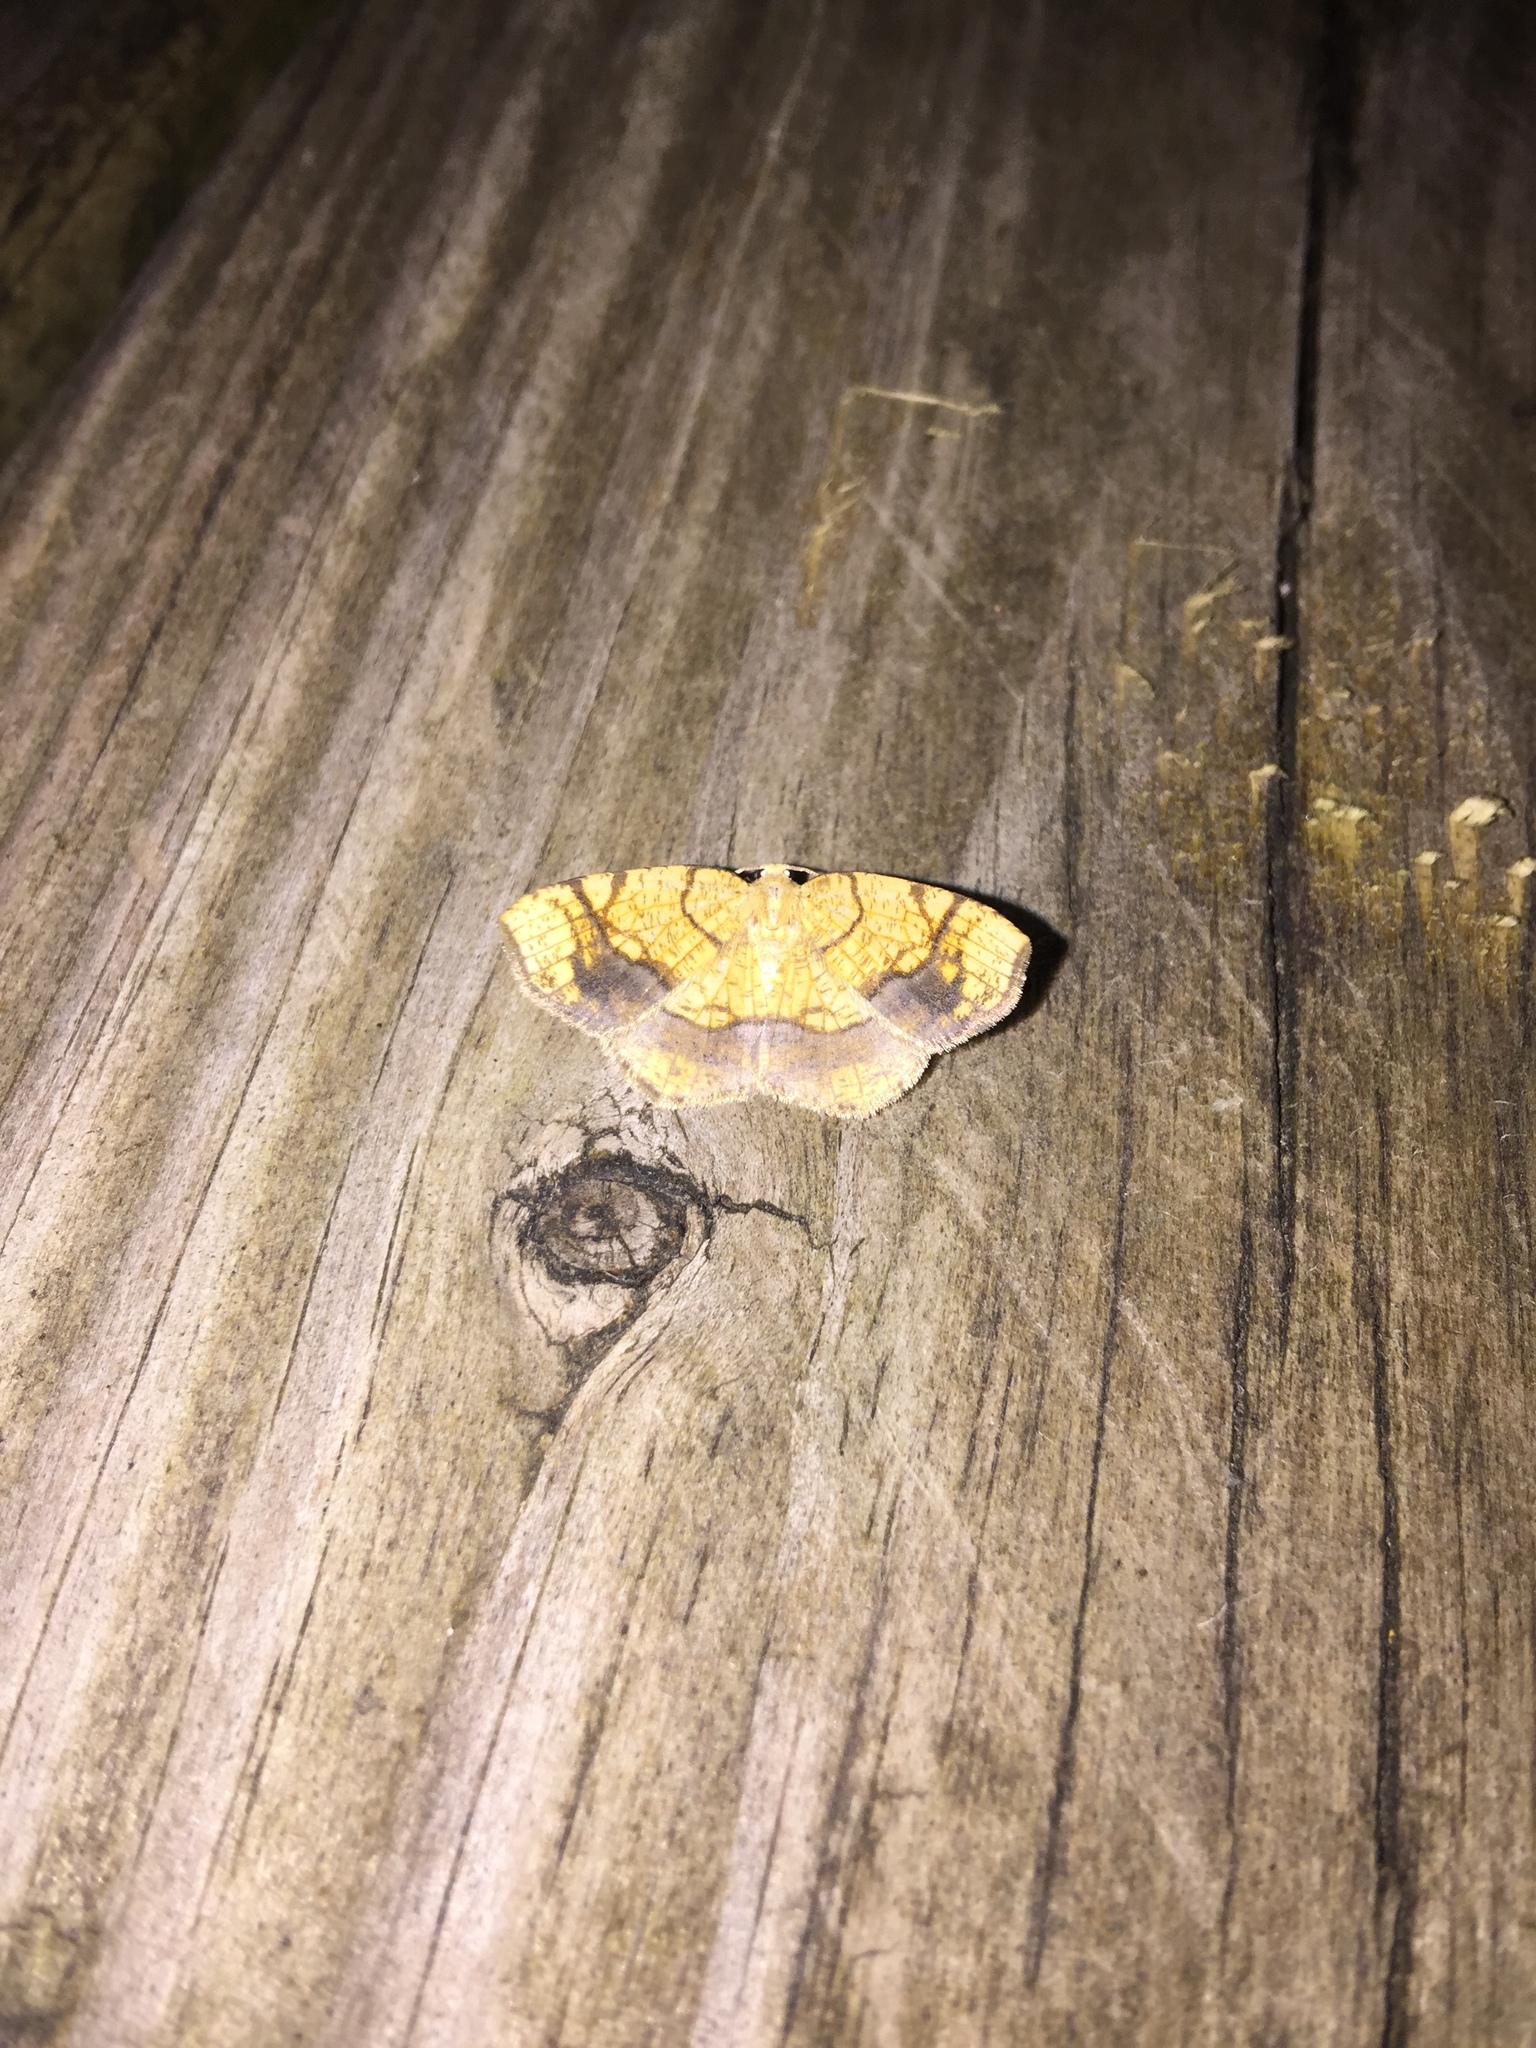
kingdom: Animalia
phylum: Arthropoda
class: Insecta
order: Lepidoptera
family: Geometridae
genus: Nematocampa
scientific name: Nematocampa resistaria
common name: Horned spanworm moth
